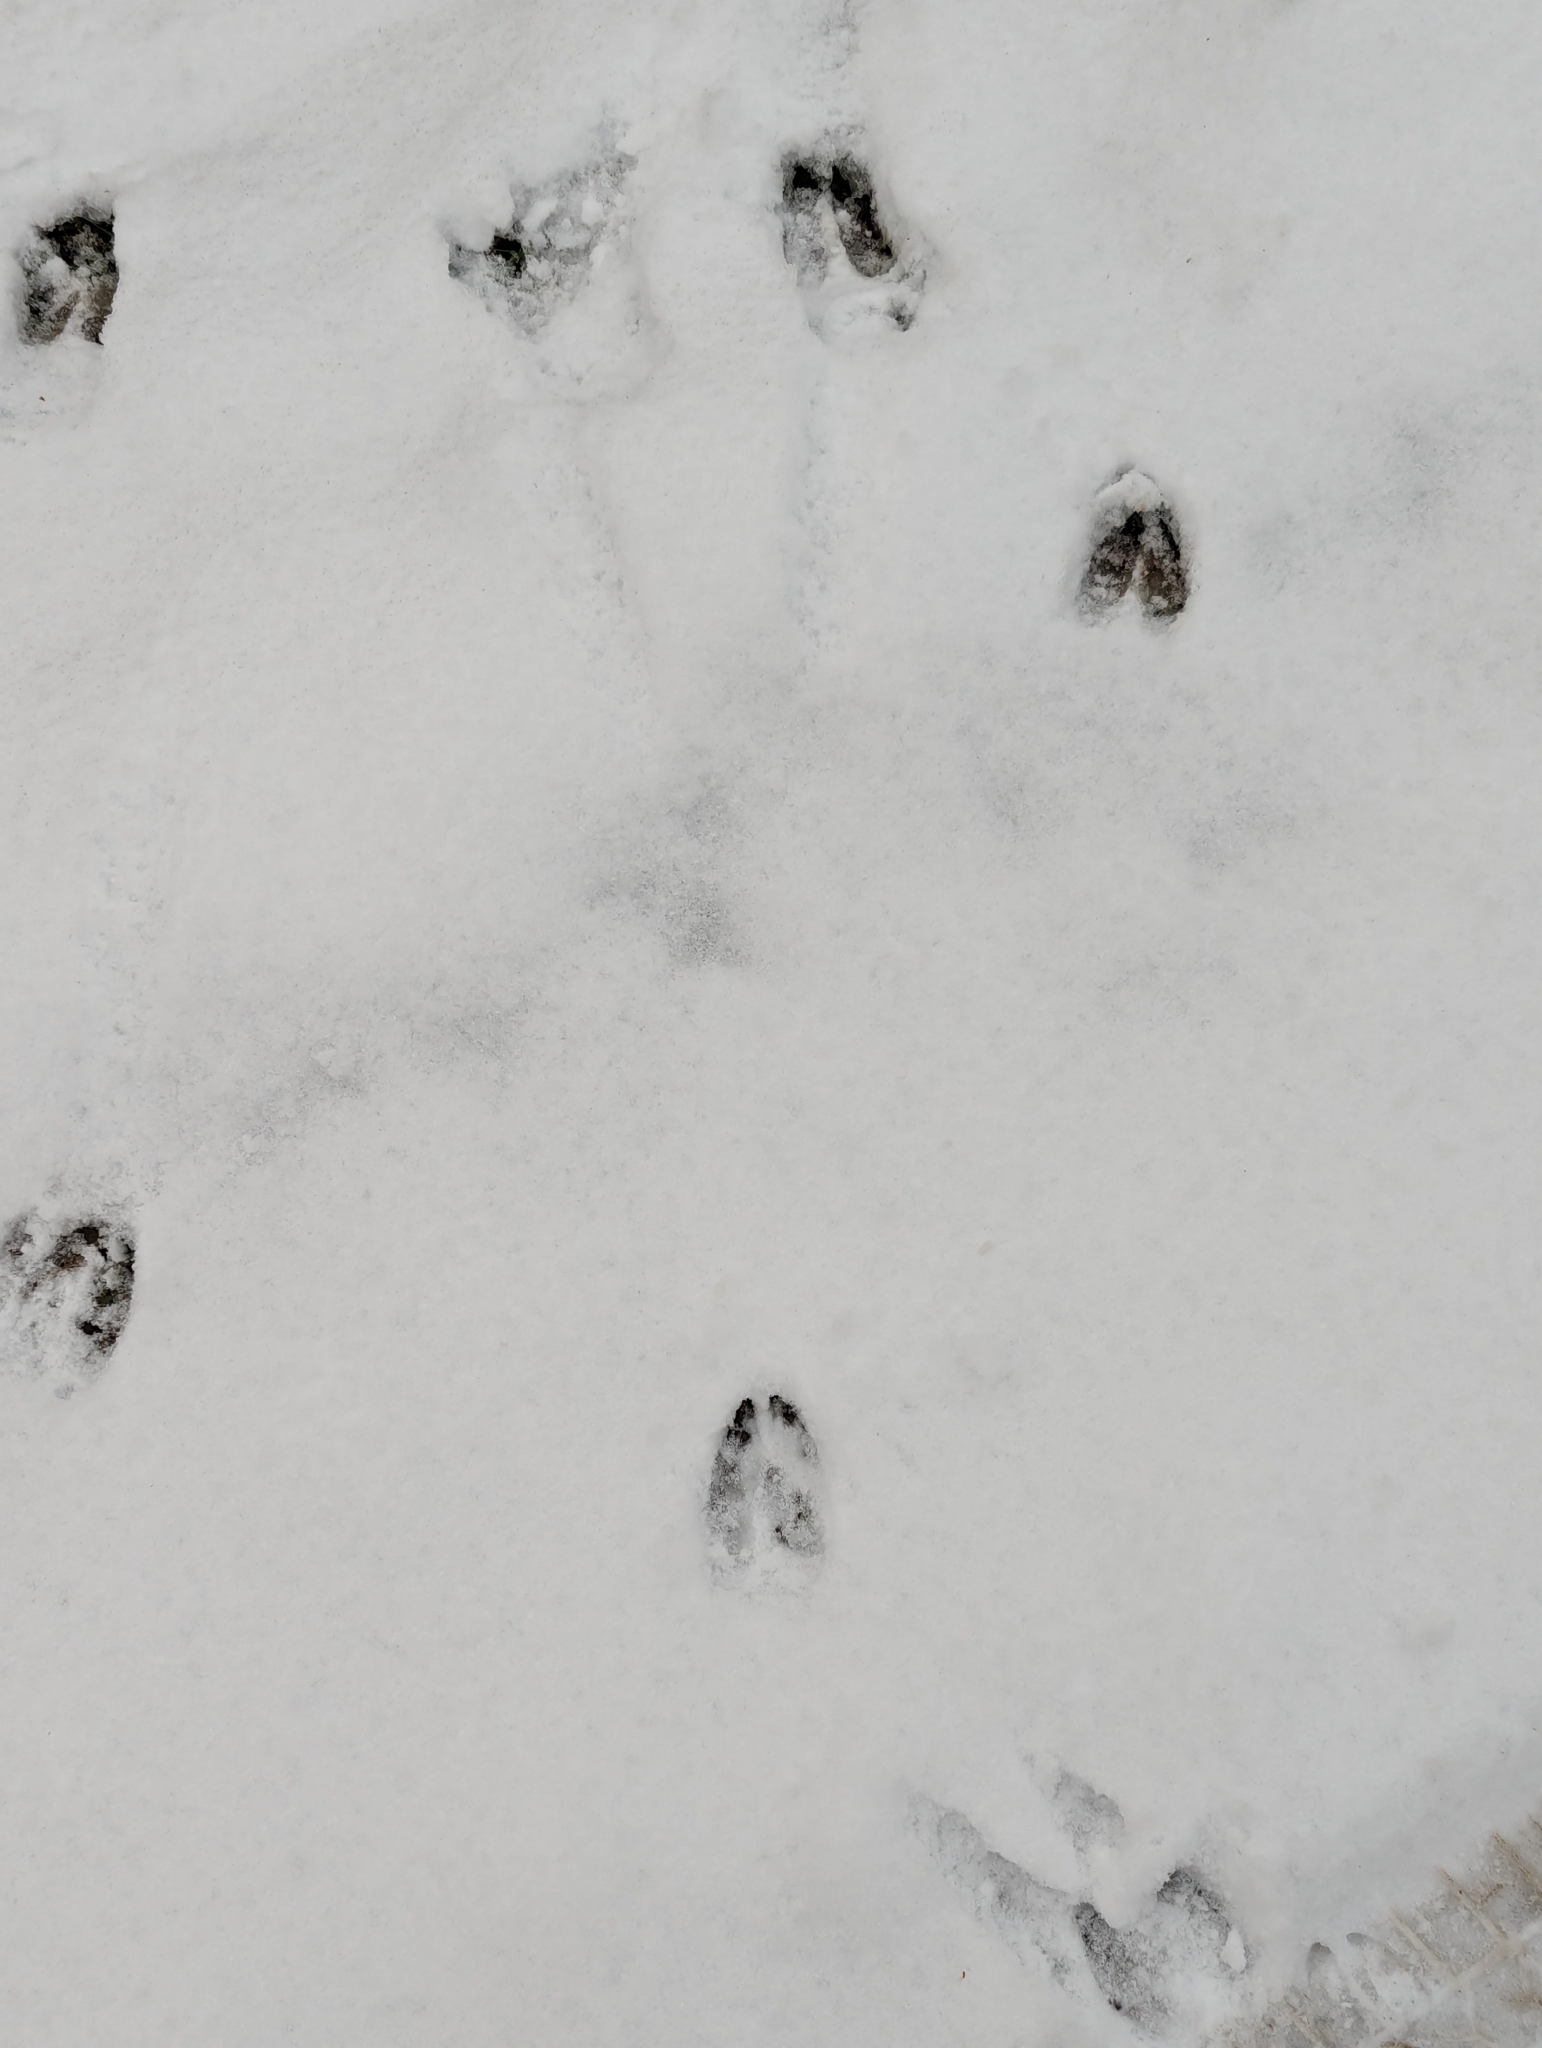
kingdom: Animalia
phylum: Chordata
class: Mammalia
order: Artiodactyla
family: Cervidae
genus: Odocoileus
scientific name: Odocoileus virginianus
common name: White-tailed deer
